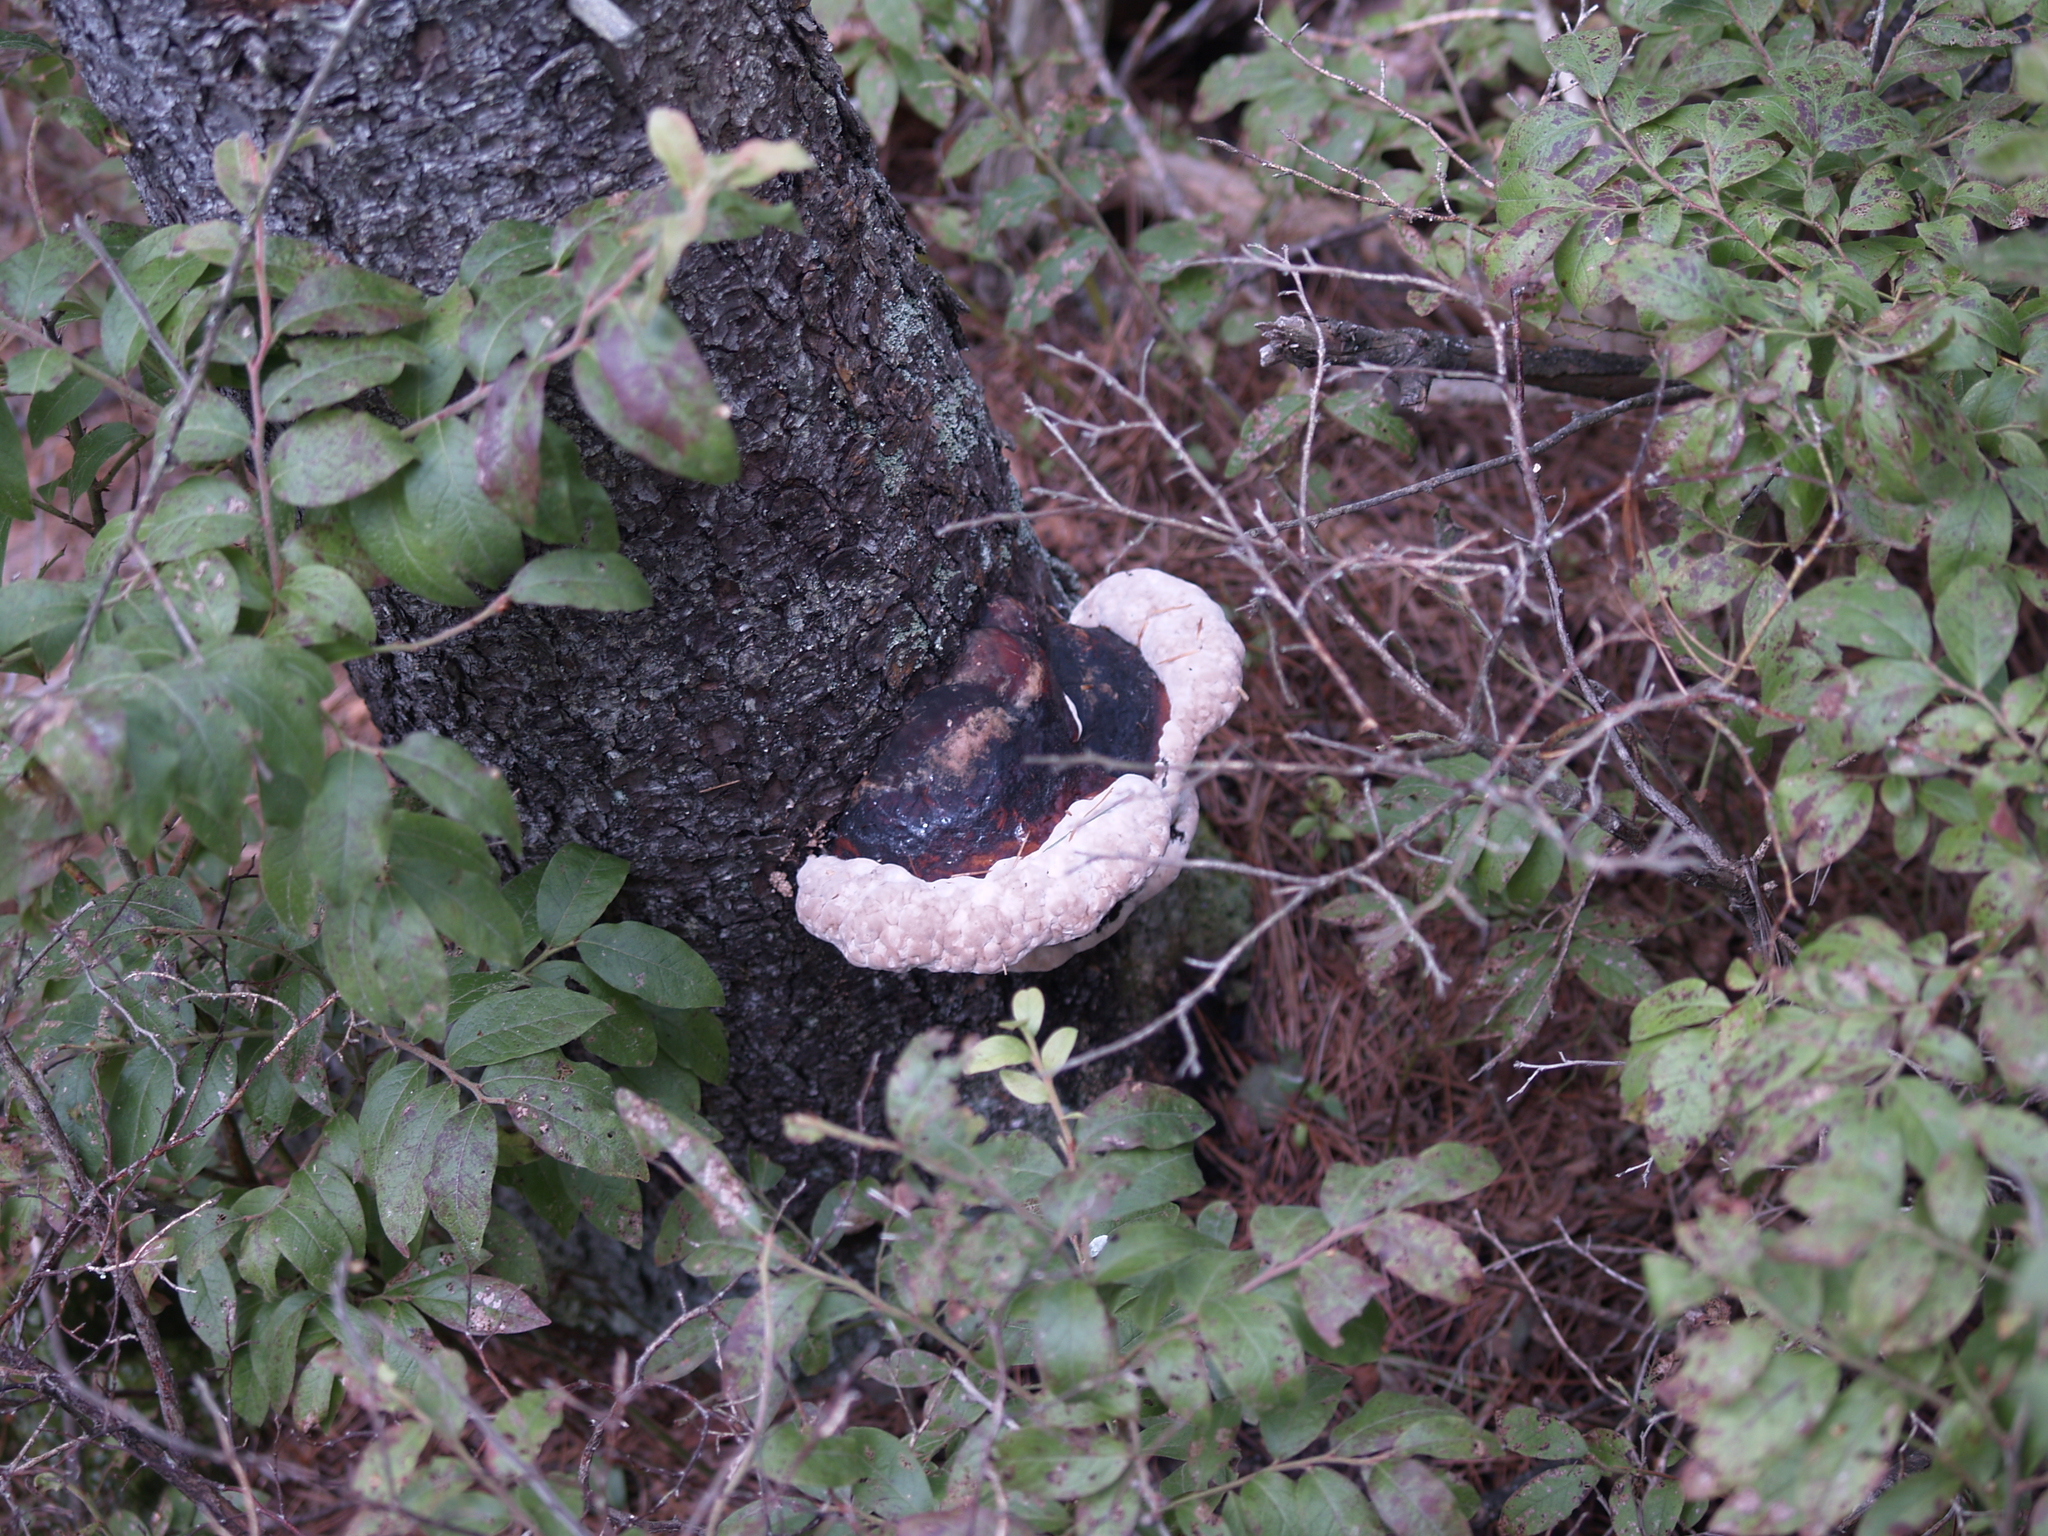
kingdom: Fungi
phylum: Basidiomycota
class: Agaricomycetes
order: Polyporales
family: Fomitopsidaceae
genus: Fomitopsis
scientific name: Fomitopsis mounceae
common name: Northern red belt
